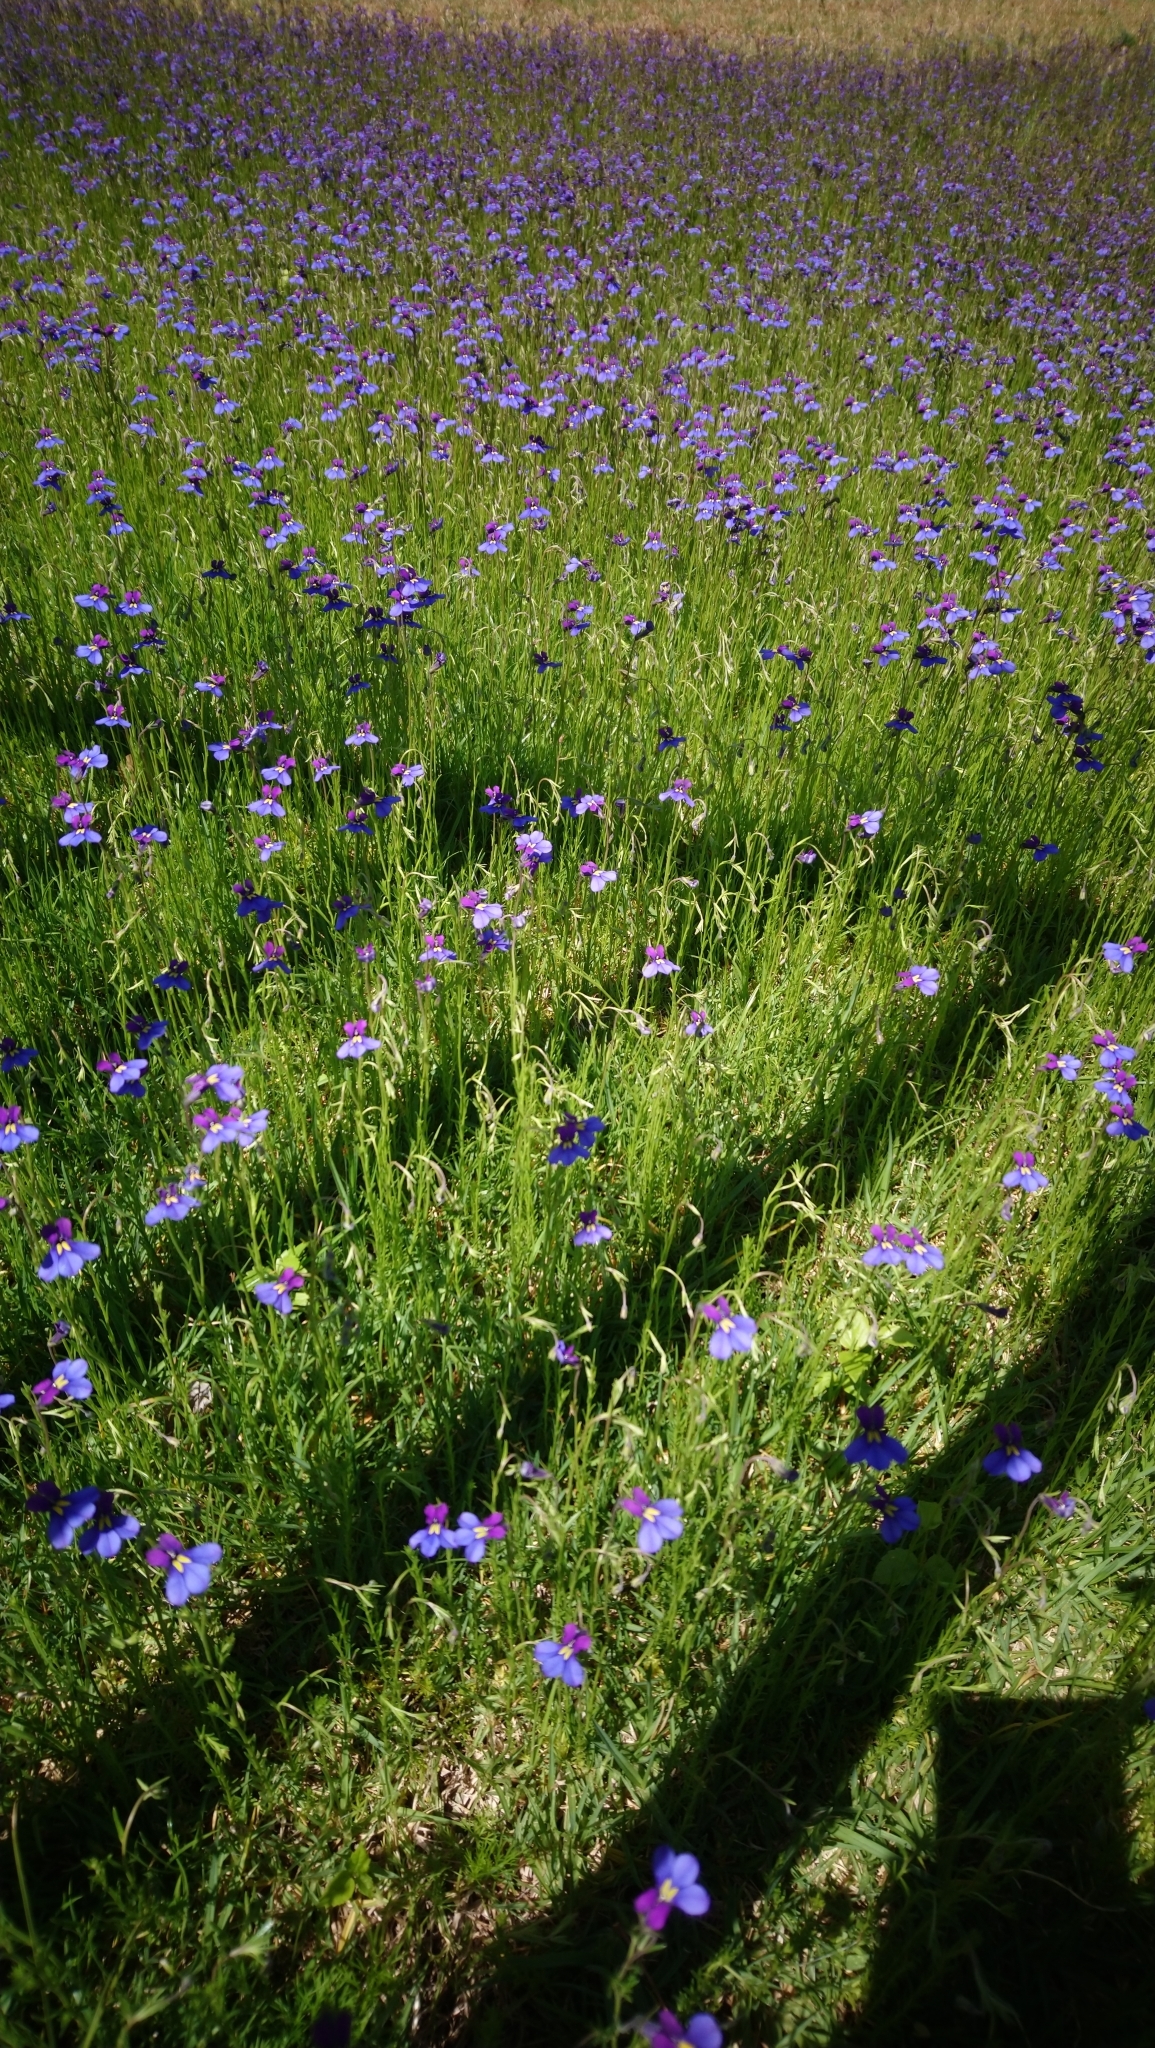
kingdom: Plantae
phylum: Tracheophyta
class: Magnoliopsida
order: Asterales
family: Campanulaceae
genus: Monopsis
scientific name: Monopsis decipiens
